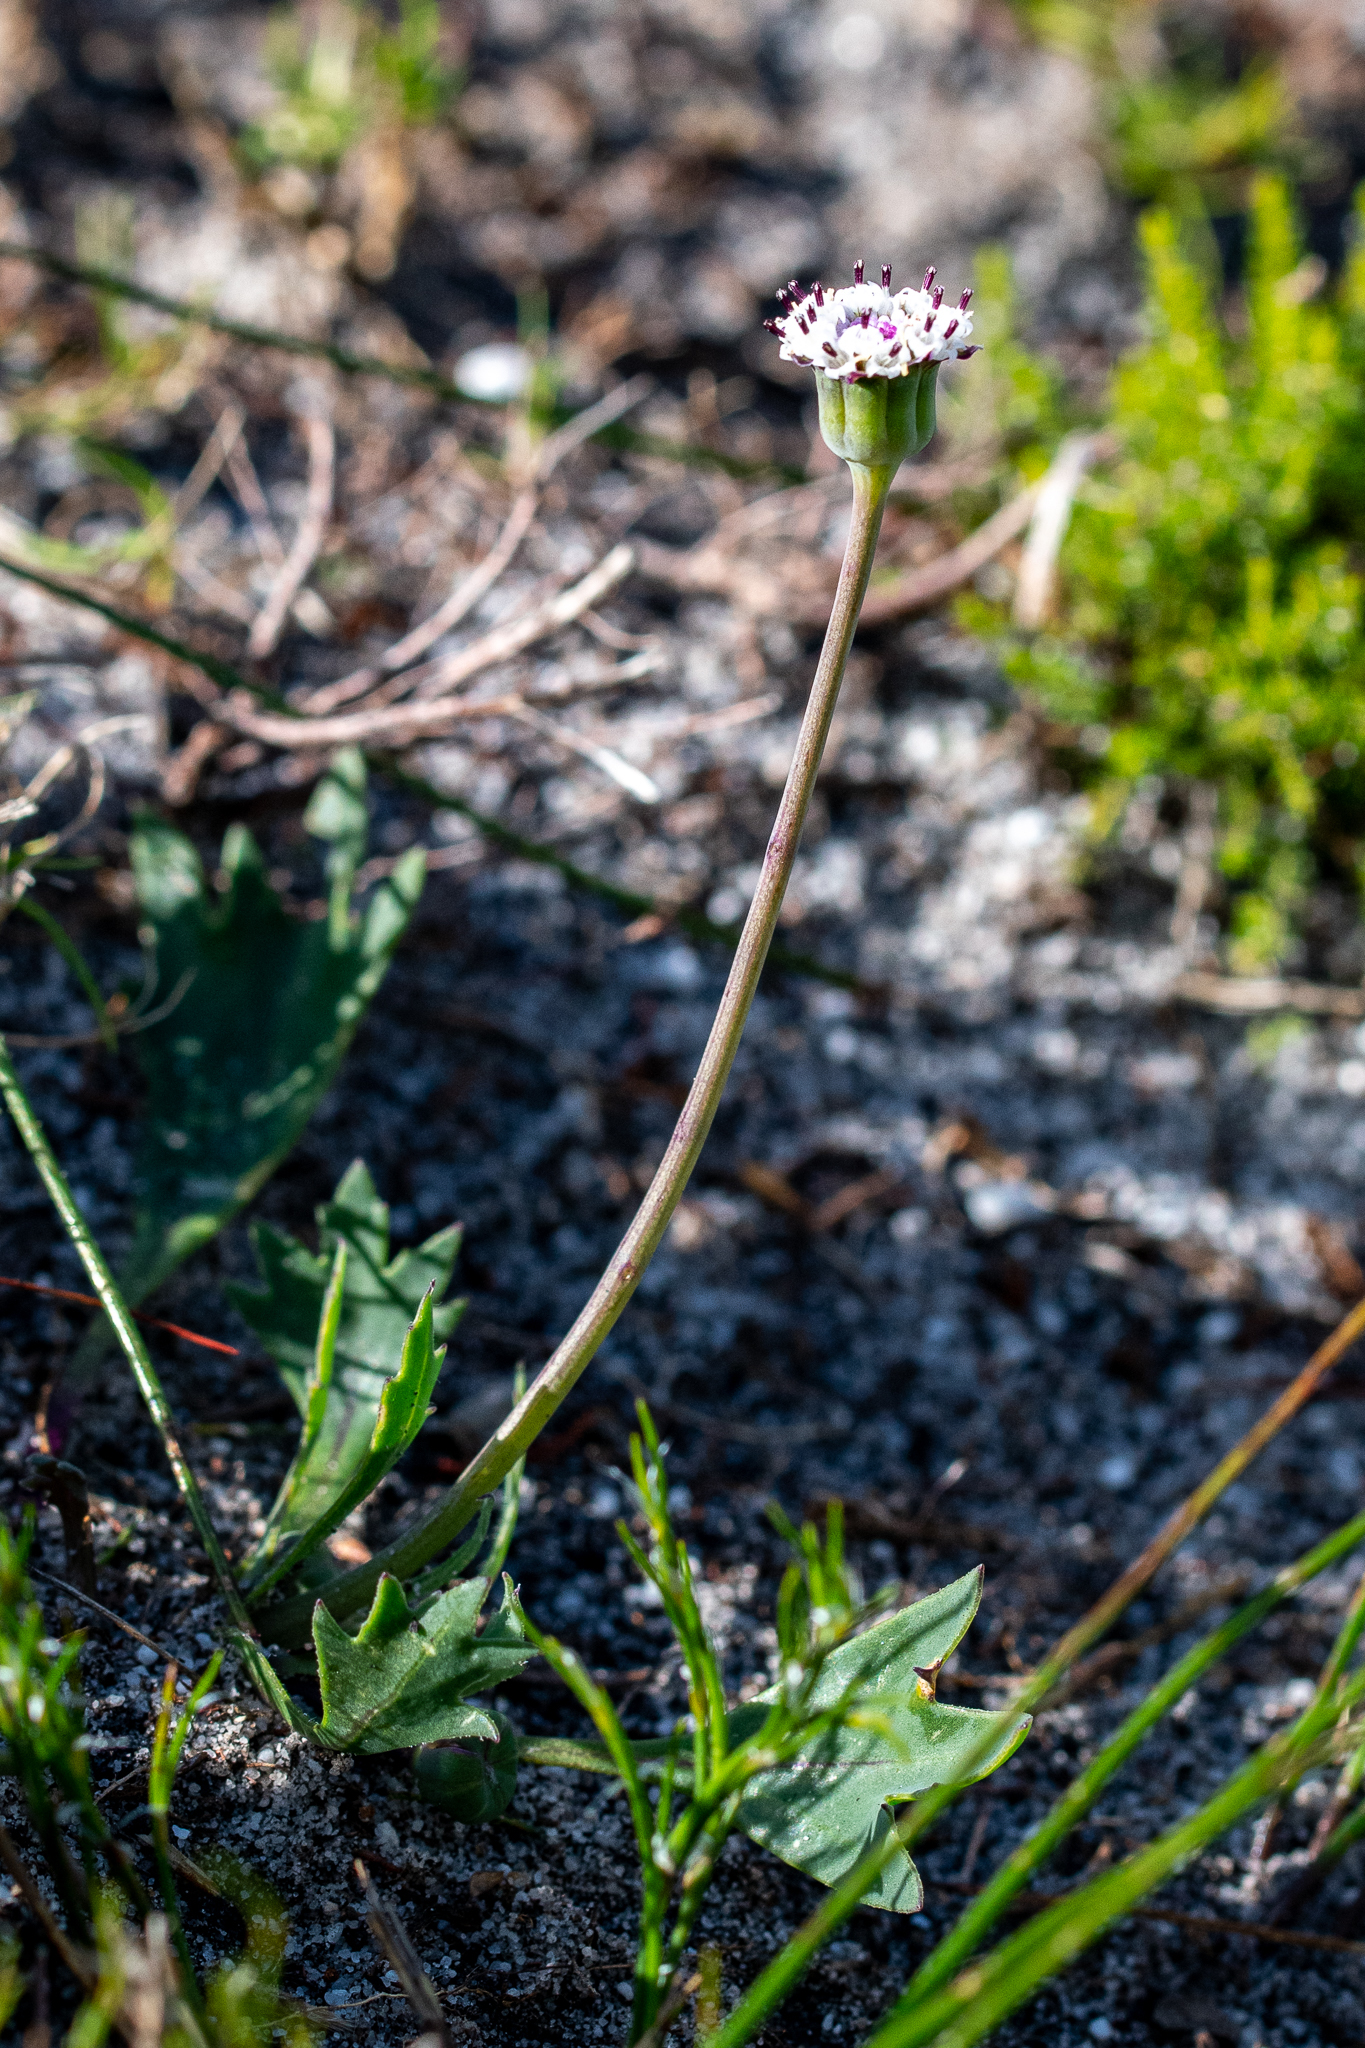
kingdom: Plantae
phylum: Tracheophyta
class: Magnoliopsida
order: Asterales
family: Asteraceae
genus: Othonna
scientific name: Othonna digitata
